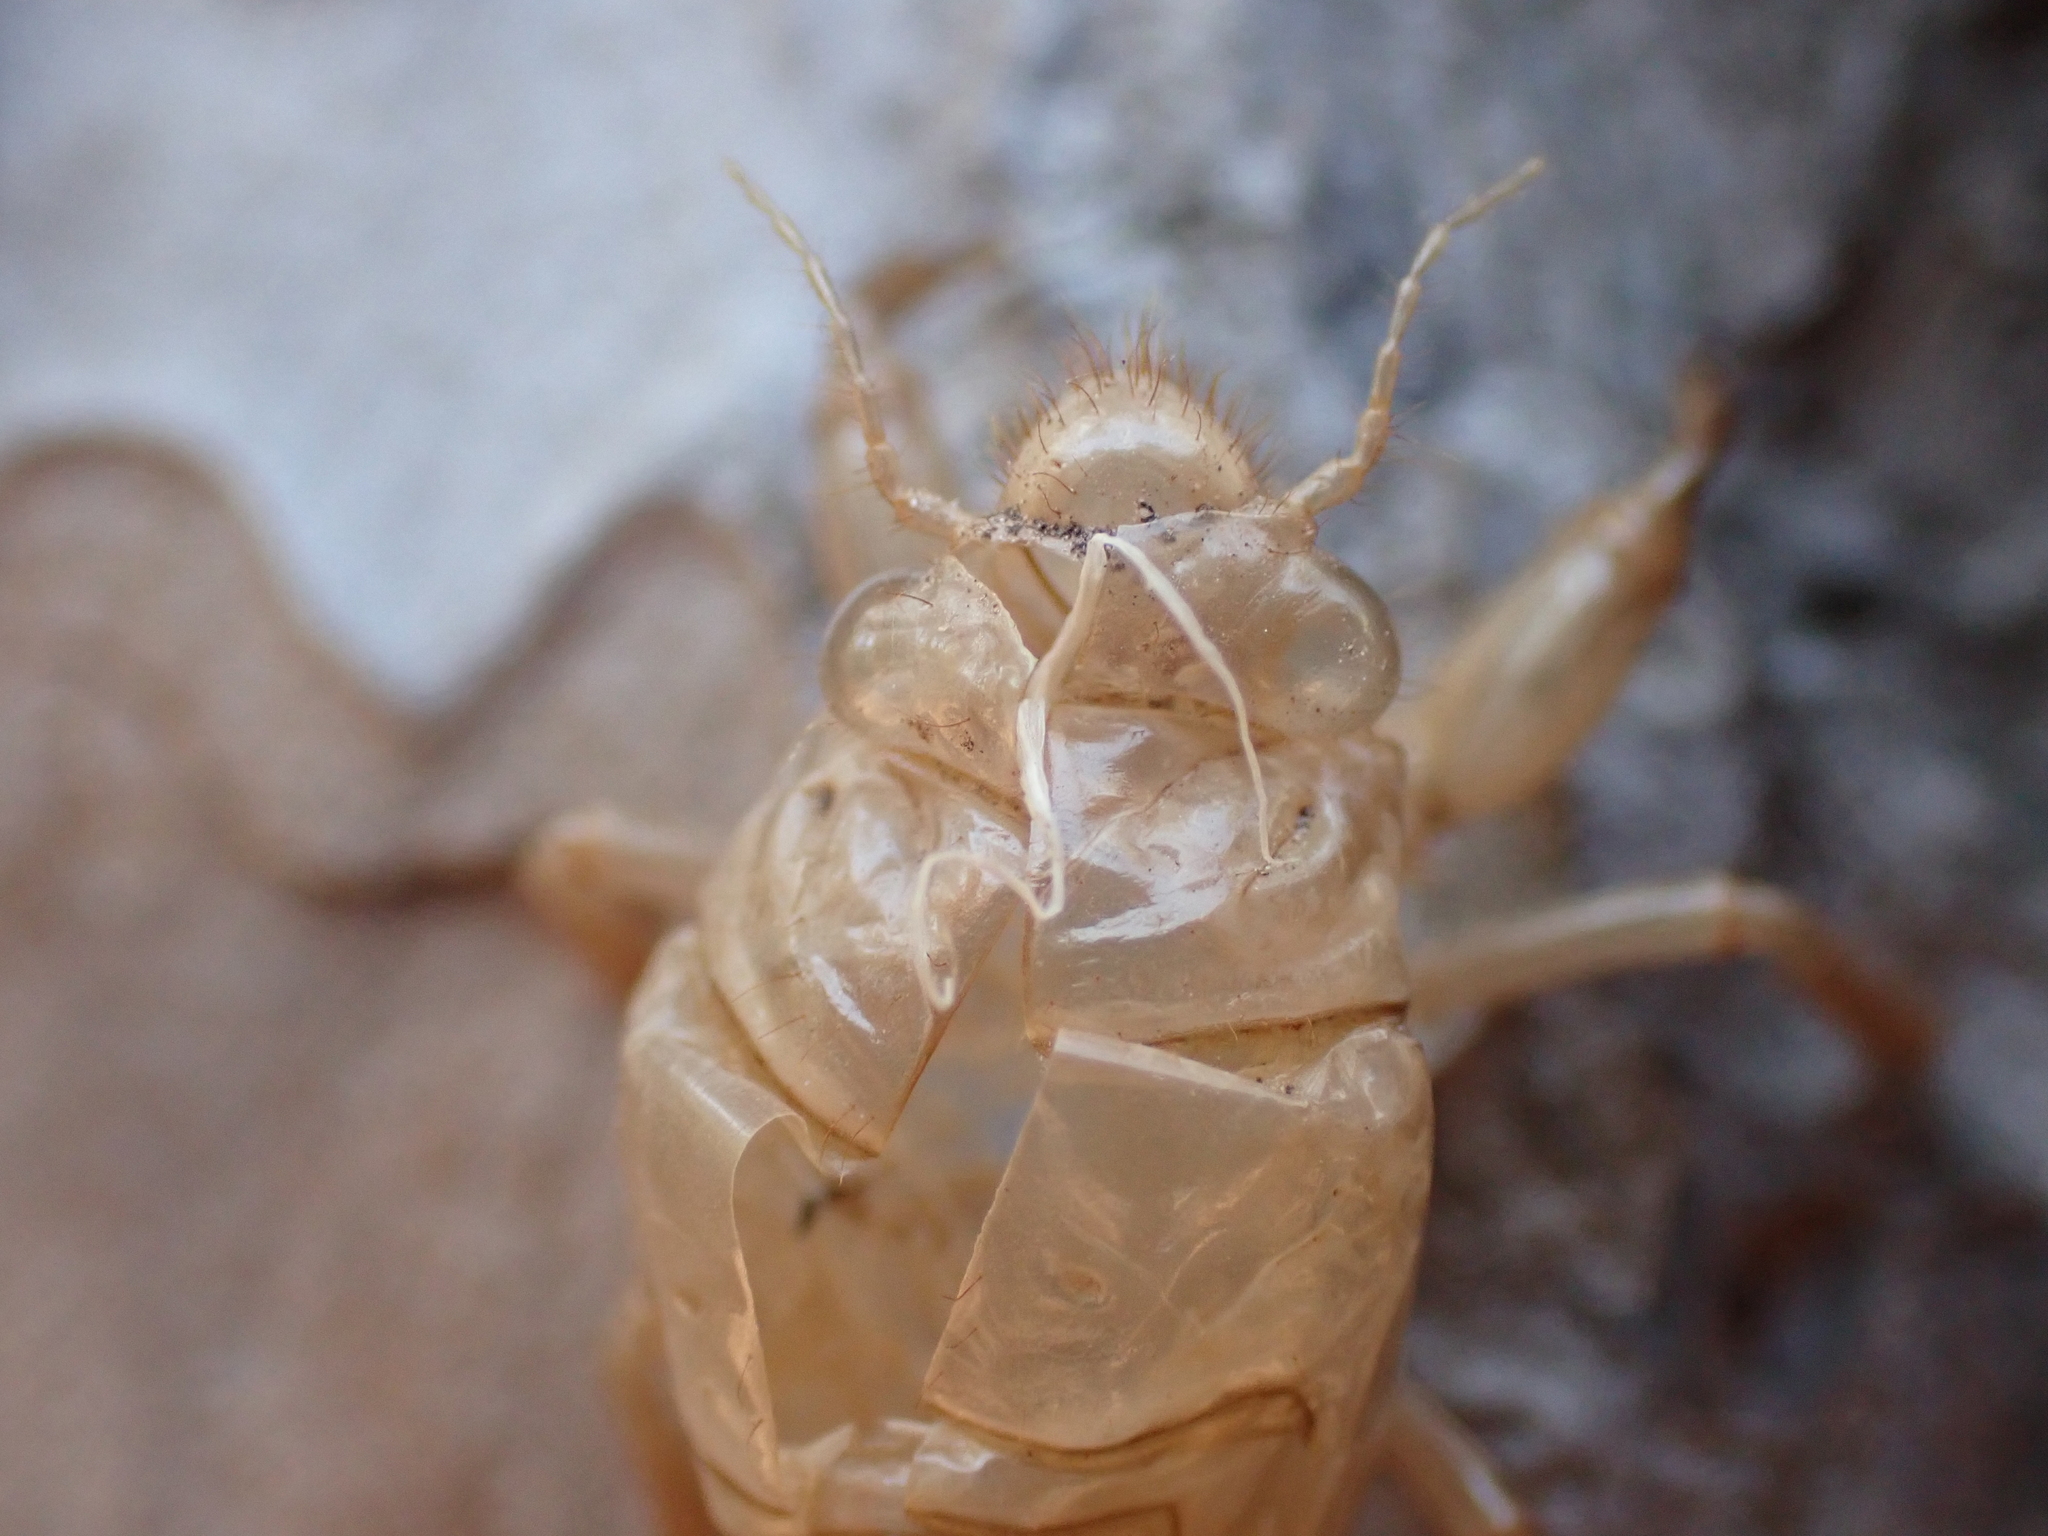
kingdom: Animalia
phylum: Arthropoda
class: Insecta
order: Hemiptera
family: Cicadidae
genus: Cicada
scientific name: Cicada orni
